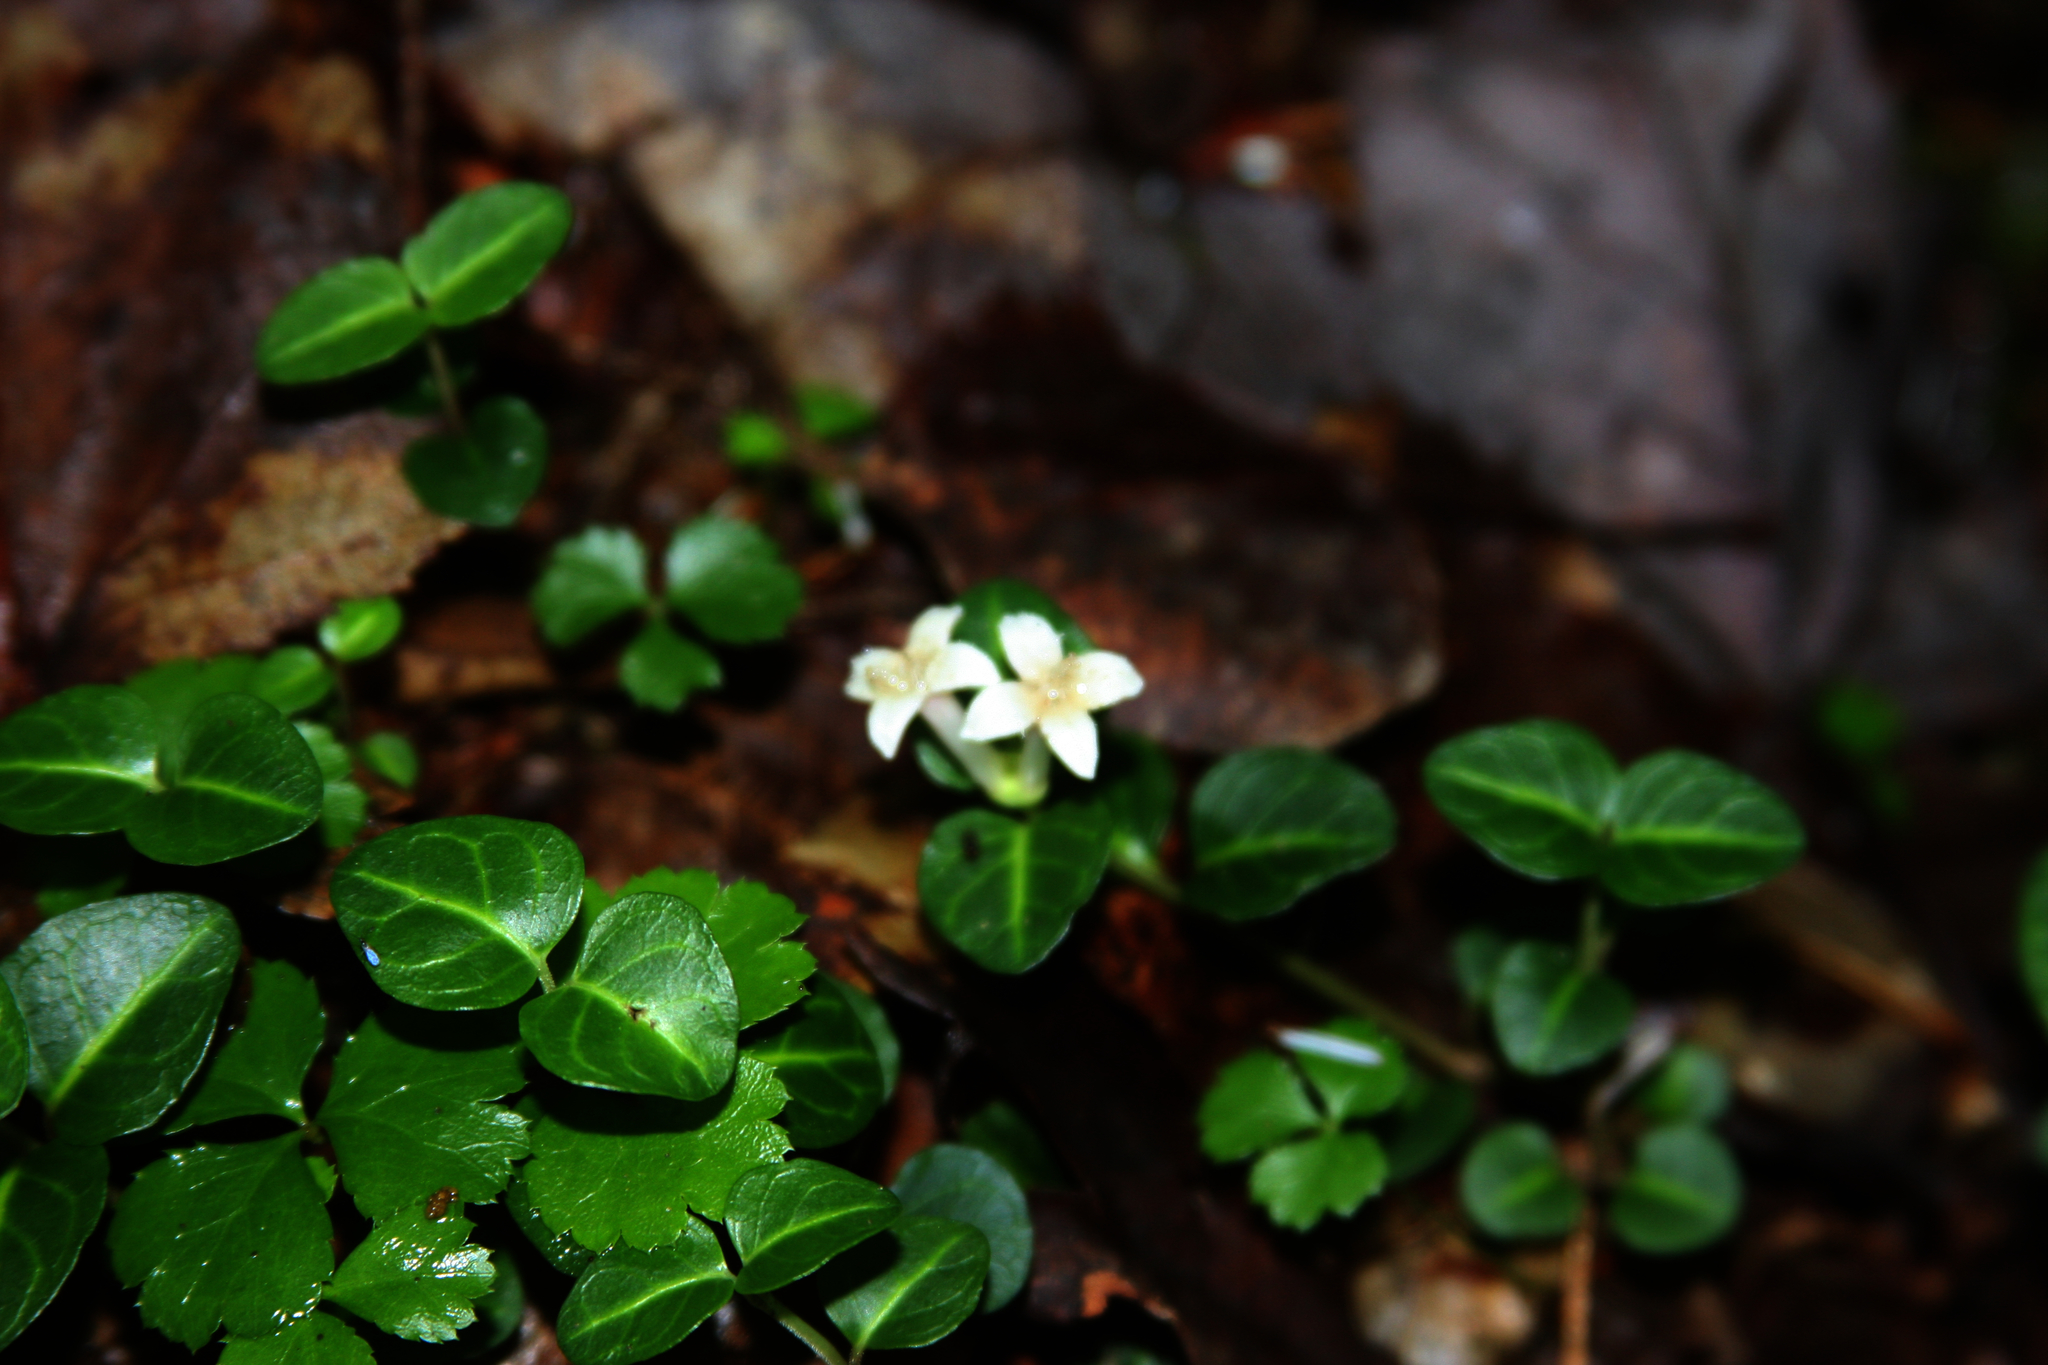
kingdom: Plantae
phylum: Tracheophyta
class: Magnoliopsida
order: Gentianales
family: Rubiaceae
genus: Mitchella
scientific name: Mitchella repens
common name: Partridge-berry
